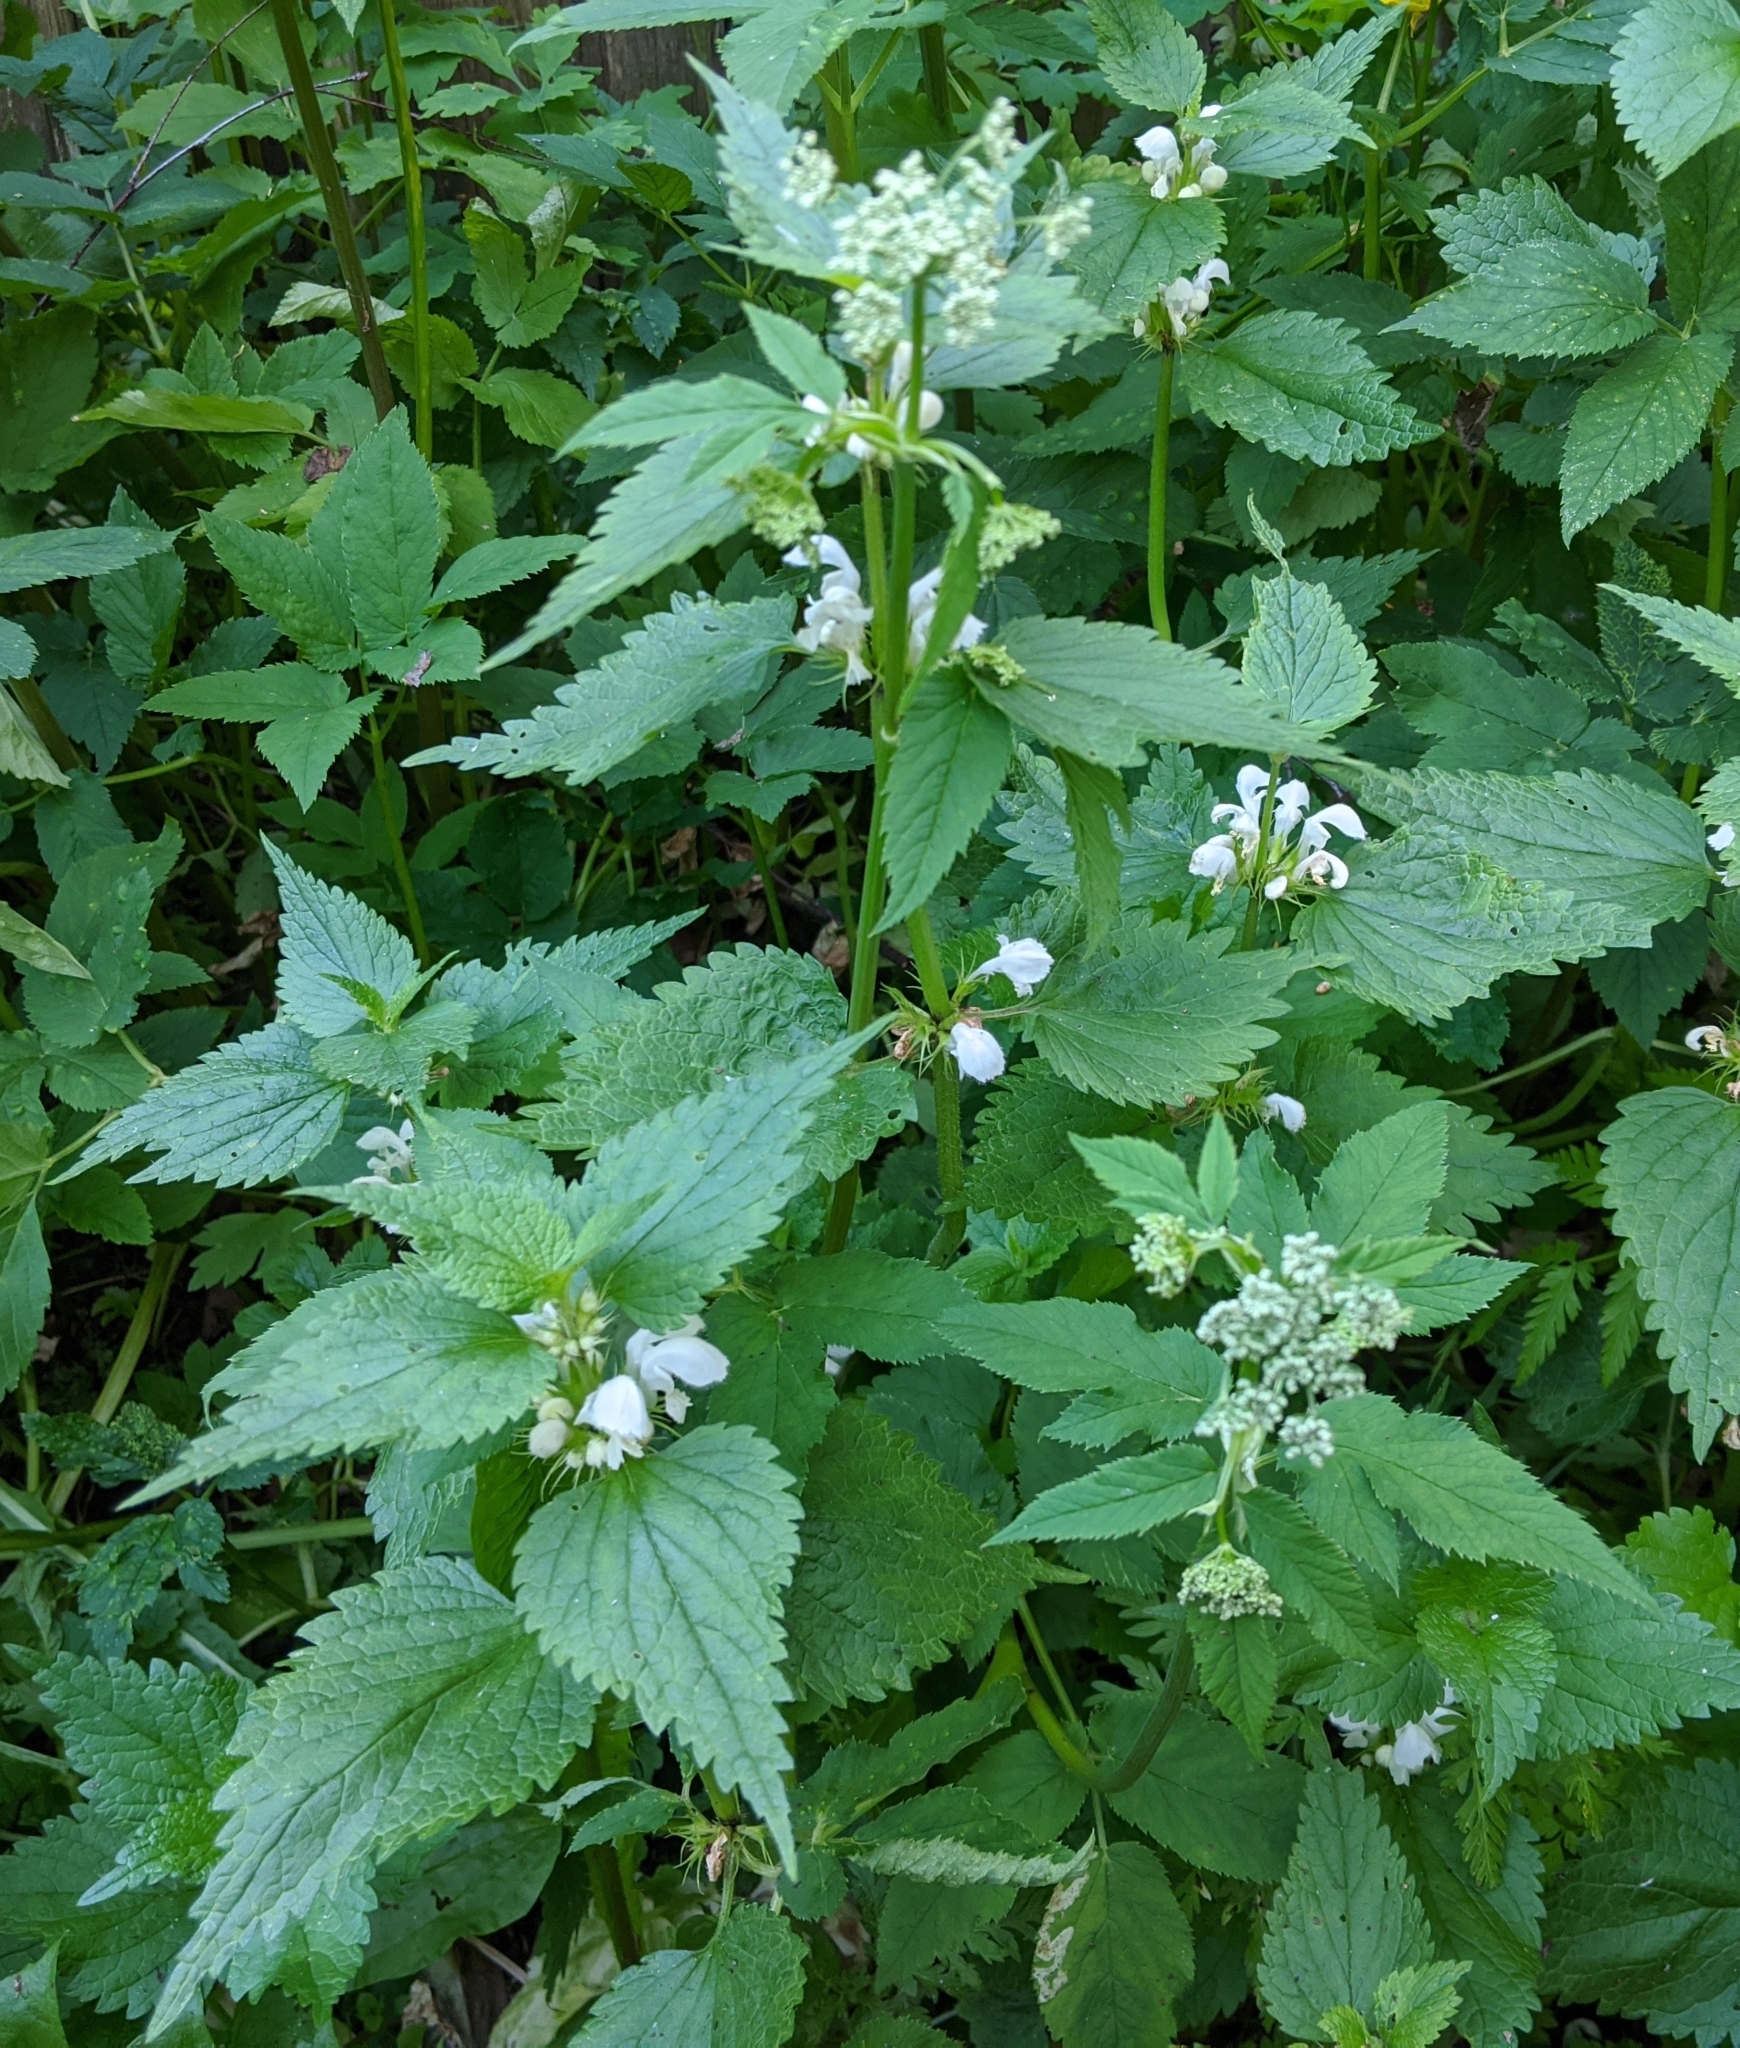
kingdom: Plantae
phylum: Tracheophyta
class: Magnoliopsida
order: Lamiales
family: Lamiaceae
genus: Lamium
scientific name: Lamium album
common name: White dead-nettle
